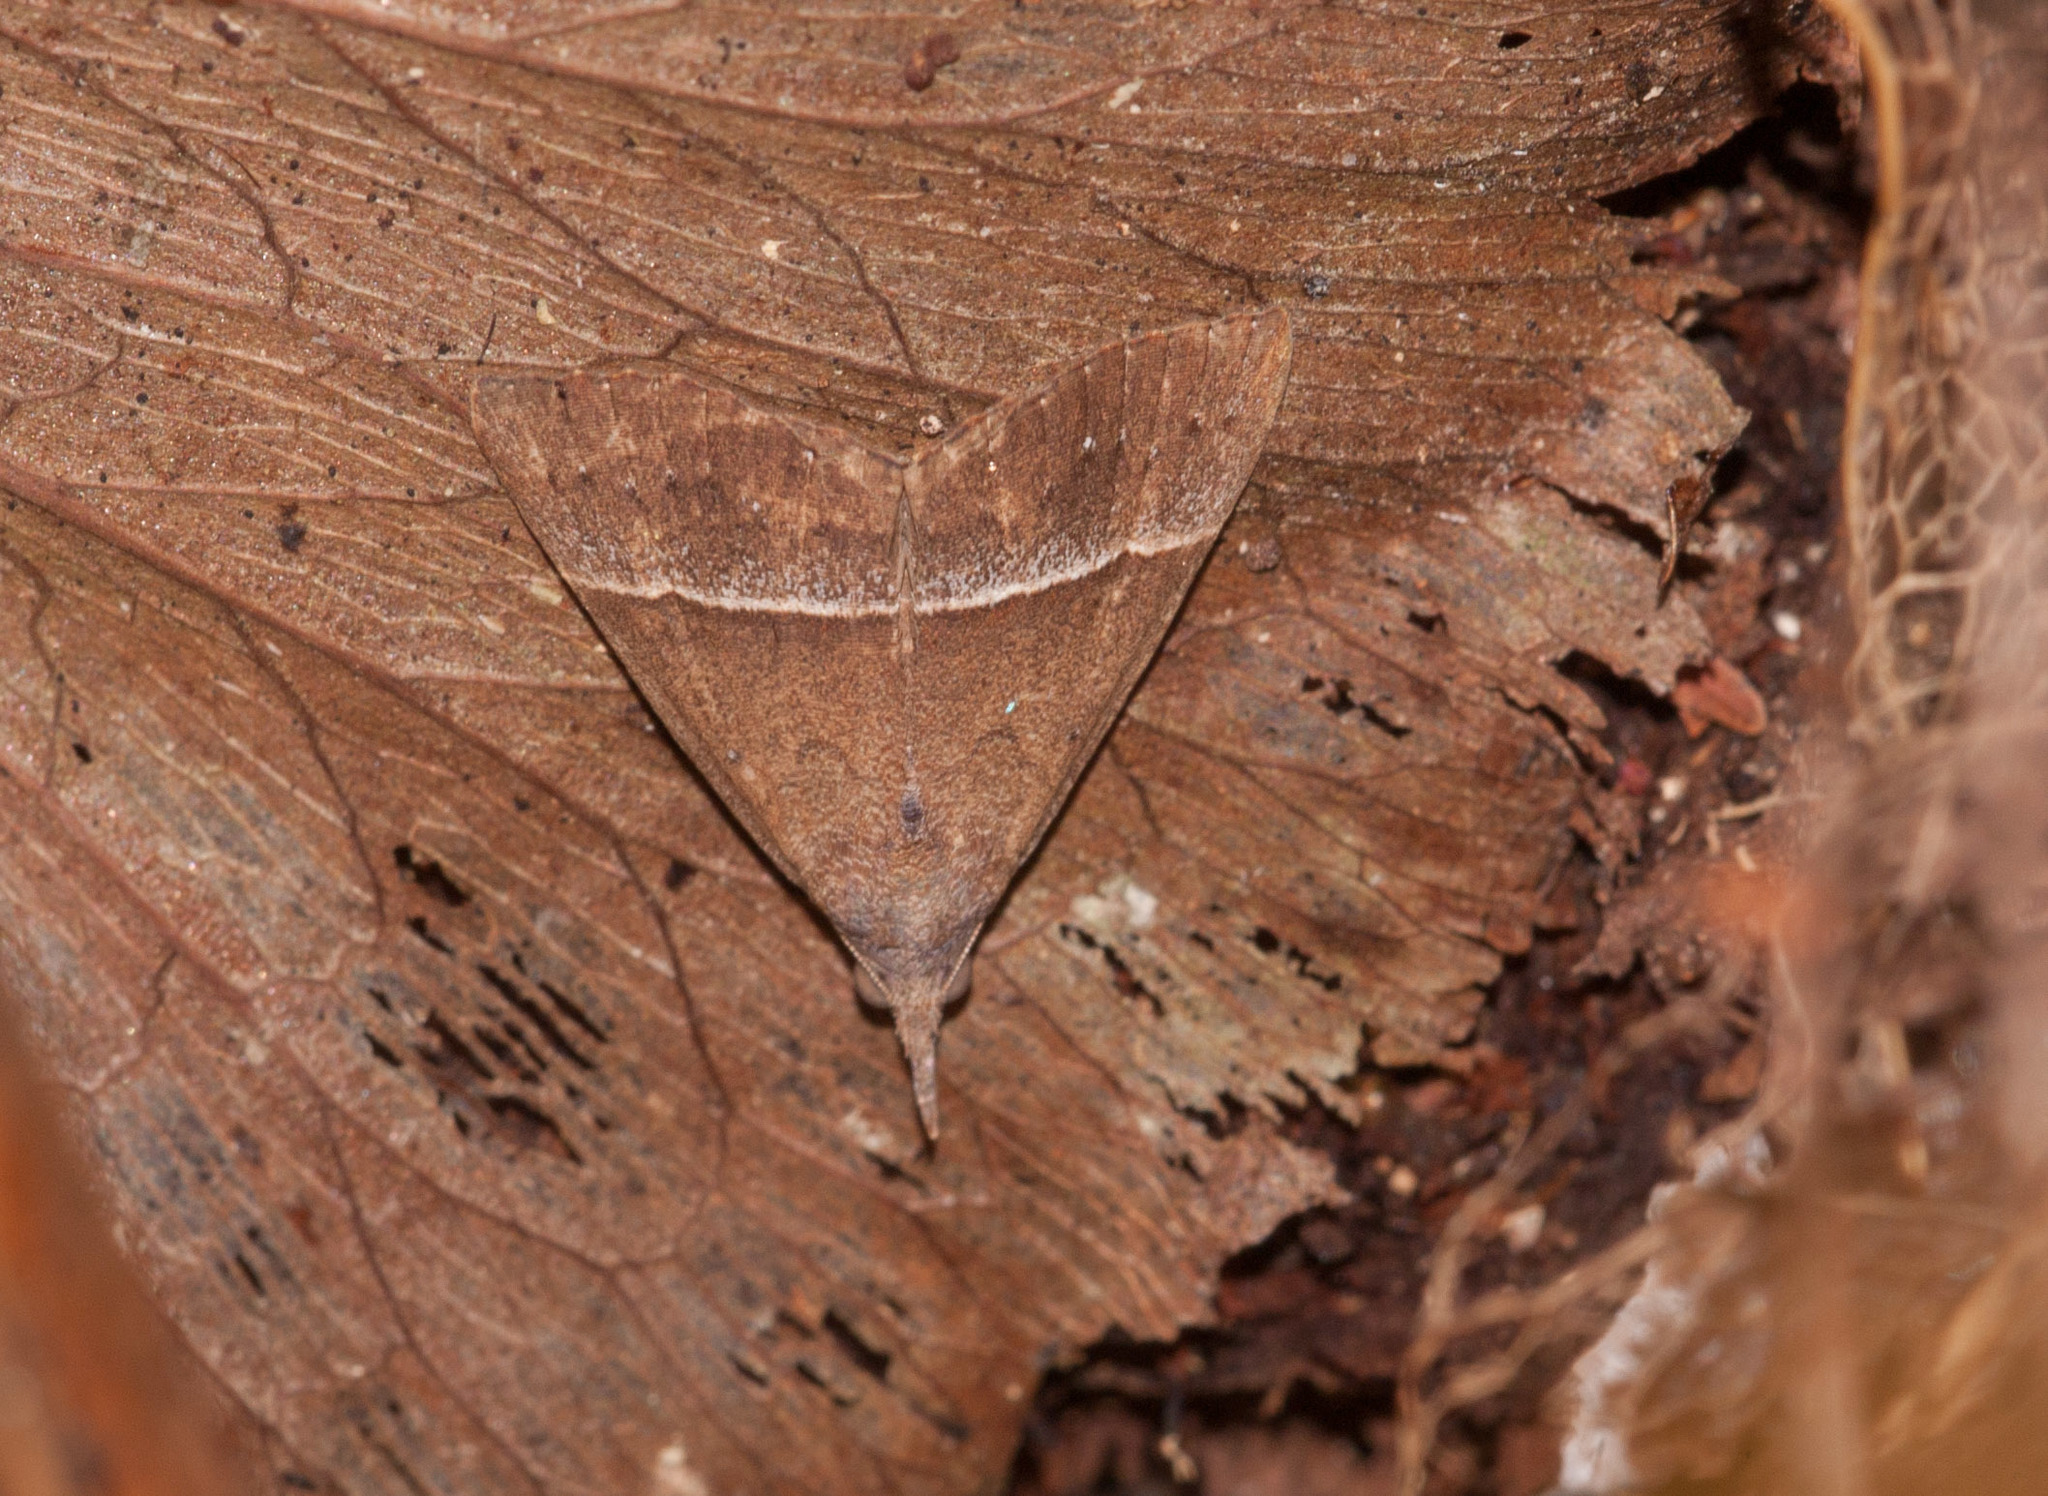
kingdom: Animalia
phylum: Arthropoda
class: Insecta
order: Lepidoptera
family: Erebidae
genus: Hypena
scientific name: Hypena orthographa
